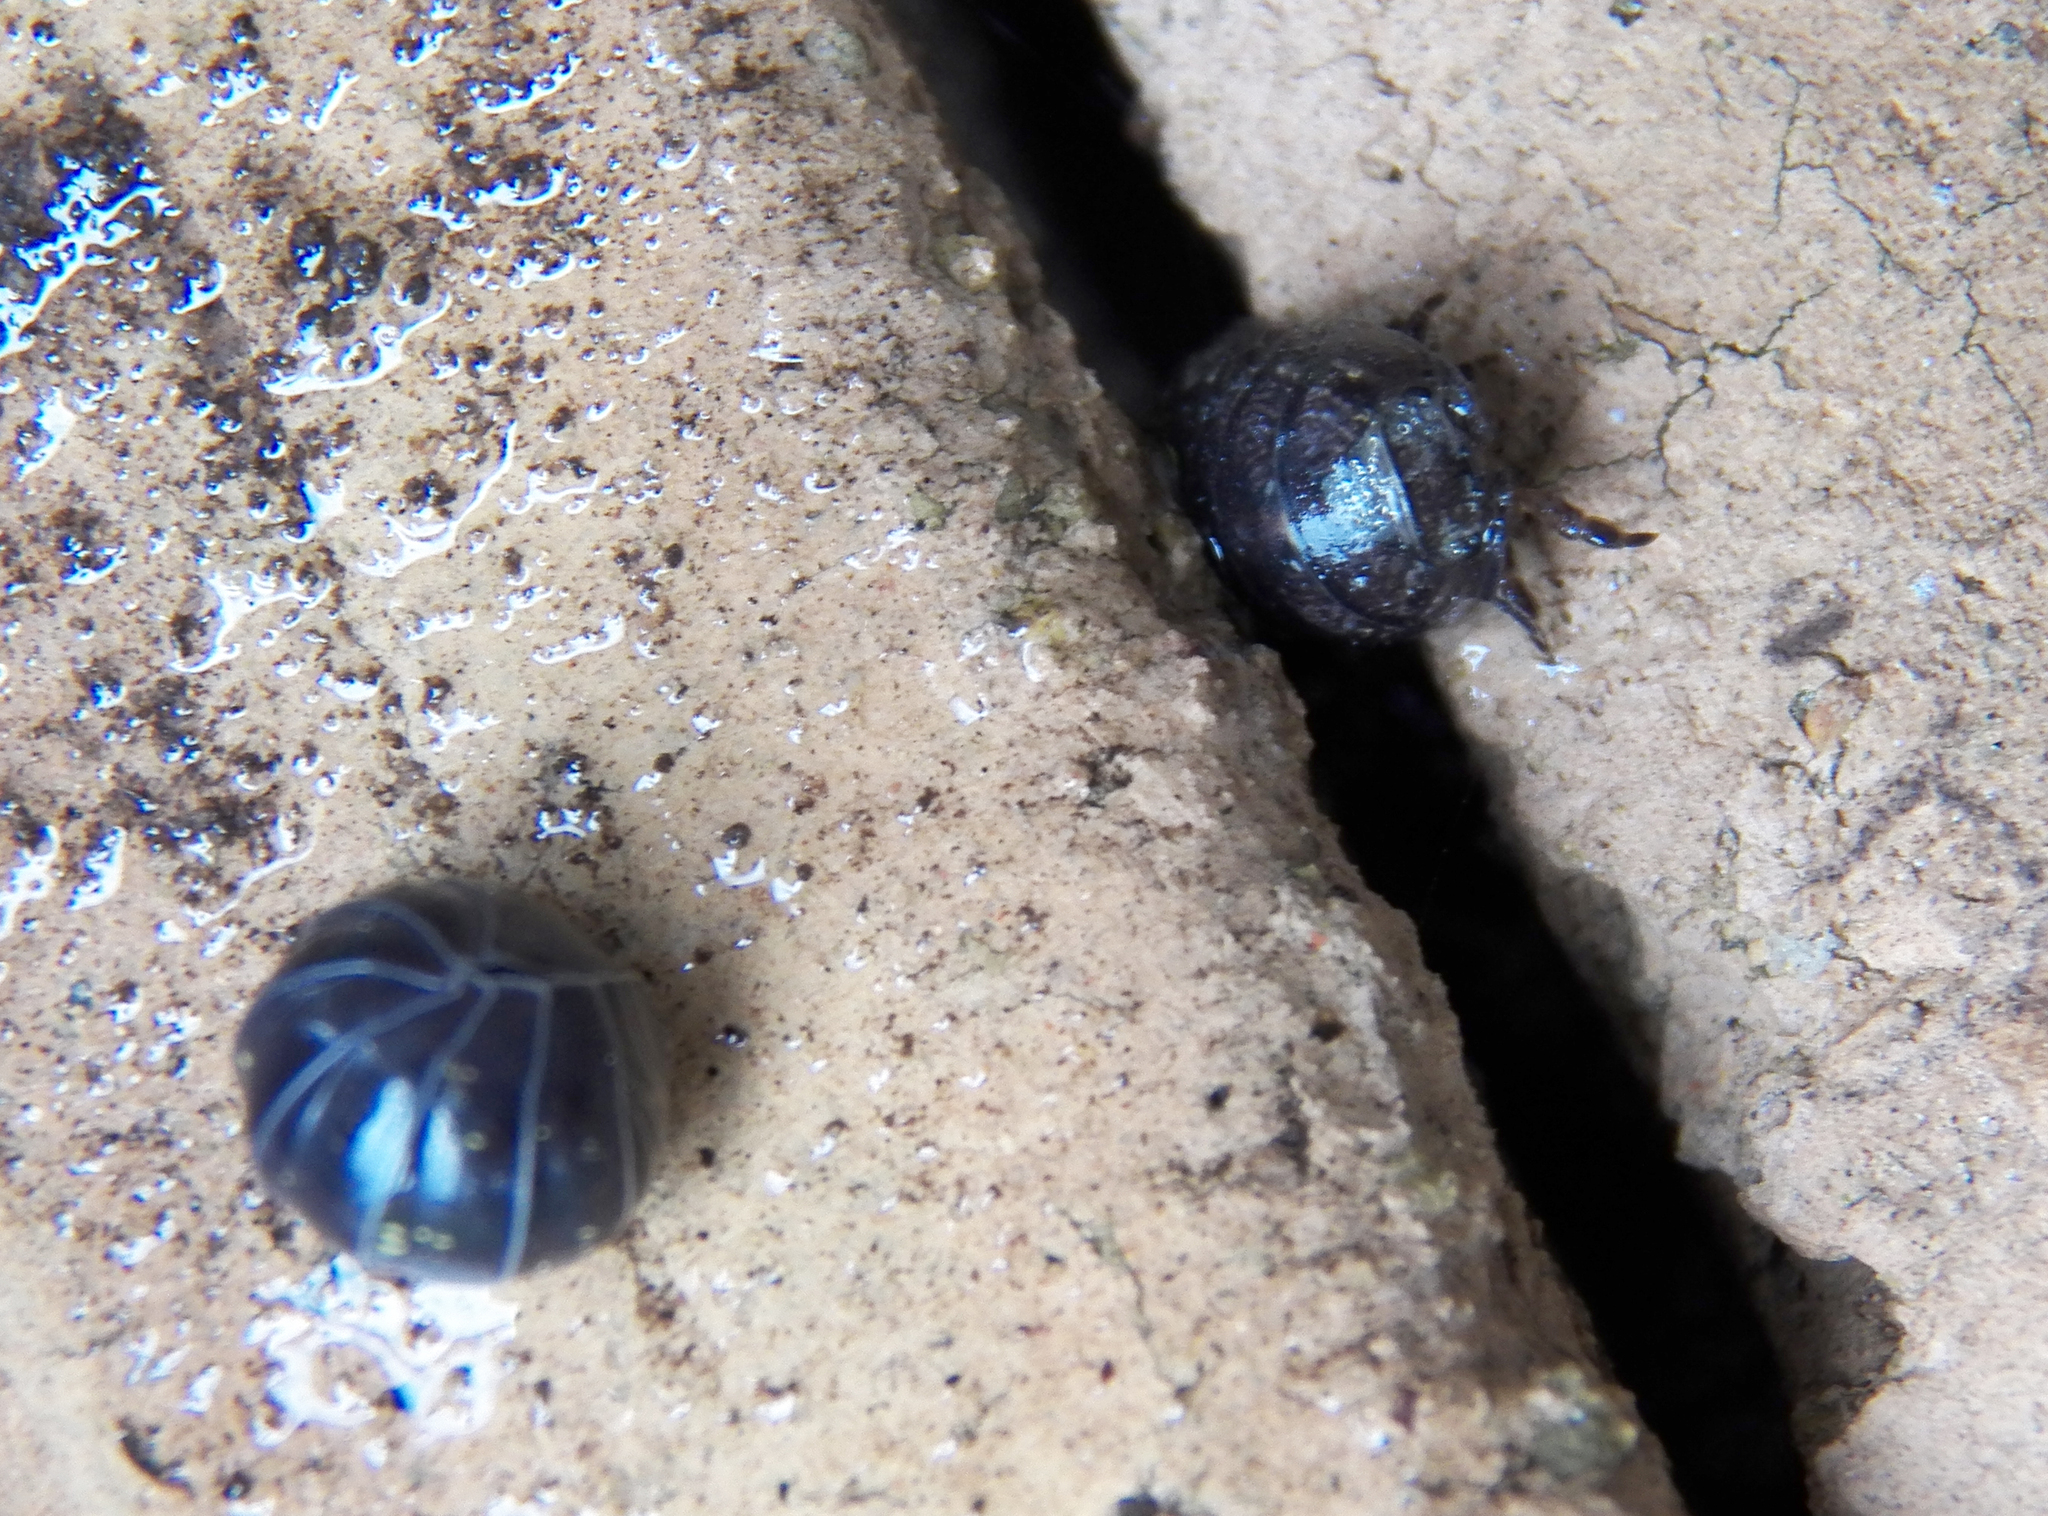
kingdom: Animalia
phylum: Arthropoda
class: Malacostraca
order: Isopoda
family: Armadillidiidae
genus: Armadillidium
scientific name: Armadillidium vulgare
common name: Common pill woodlouse
